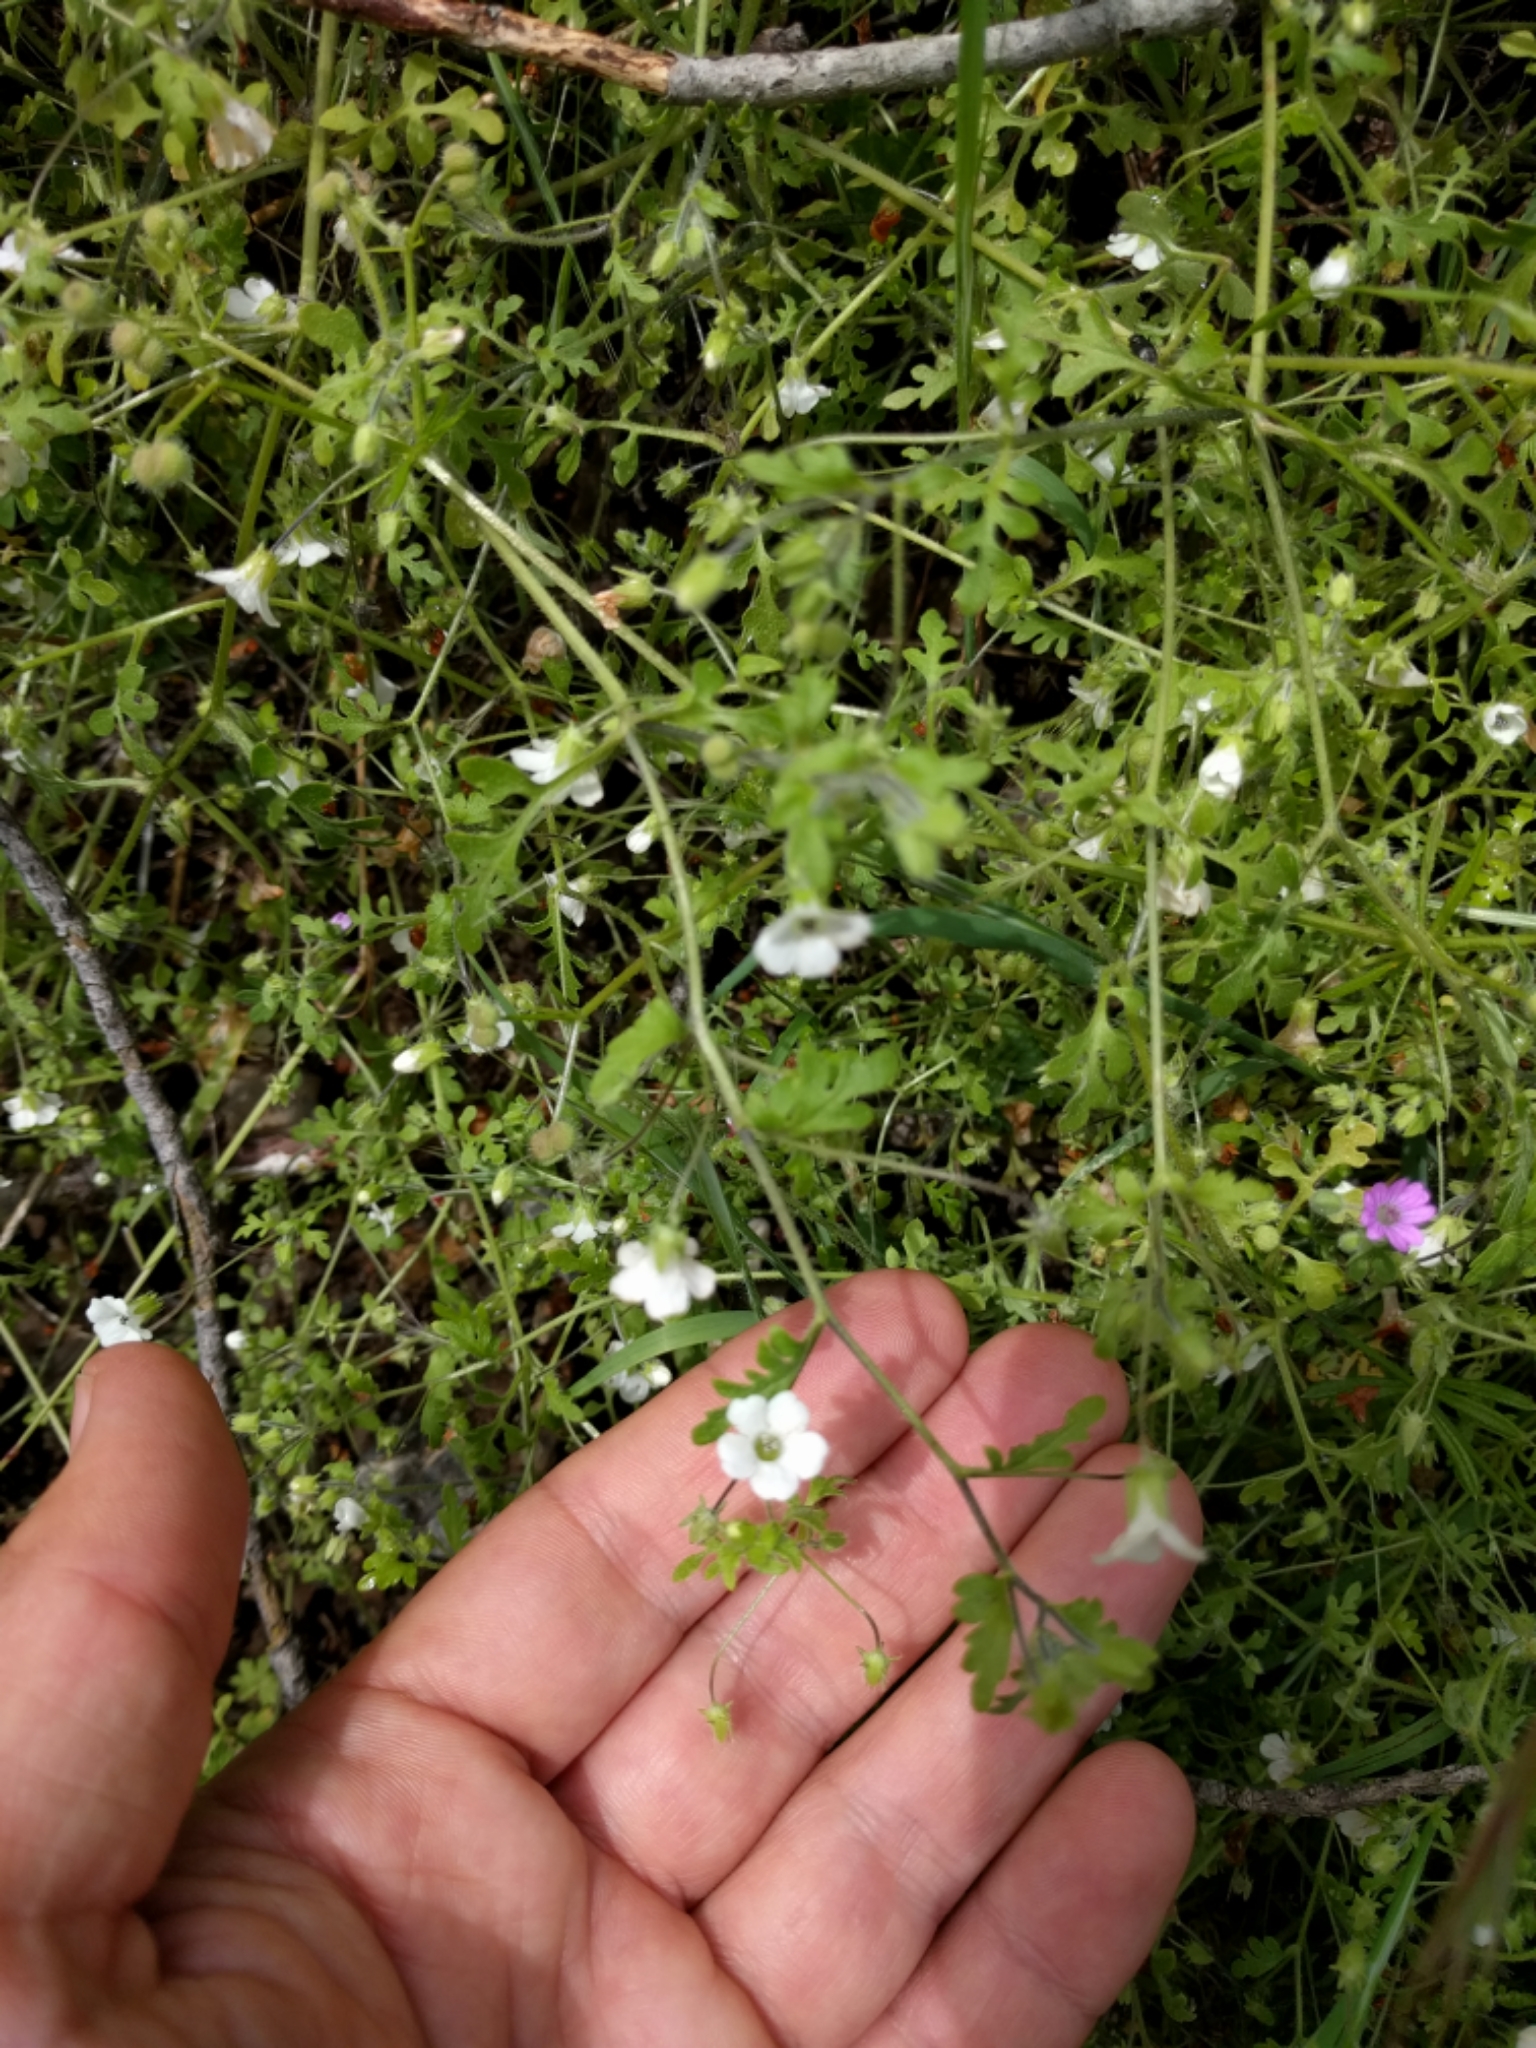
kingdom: Plantae
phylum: Tracheophyta
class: Magnoliopsida
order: Boraginales
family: Hydrophyllaceae
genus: Nemophila
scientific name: Nemophila heterophylla
